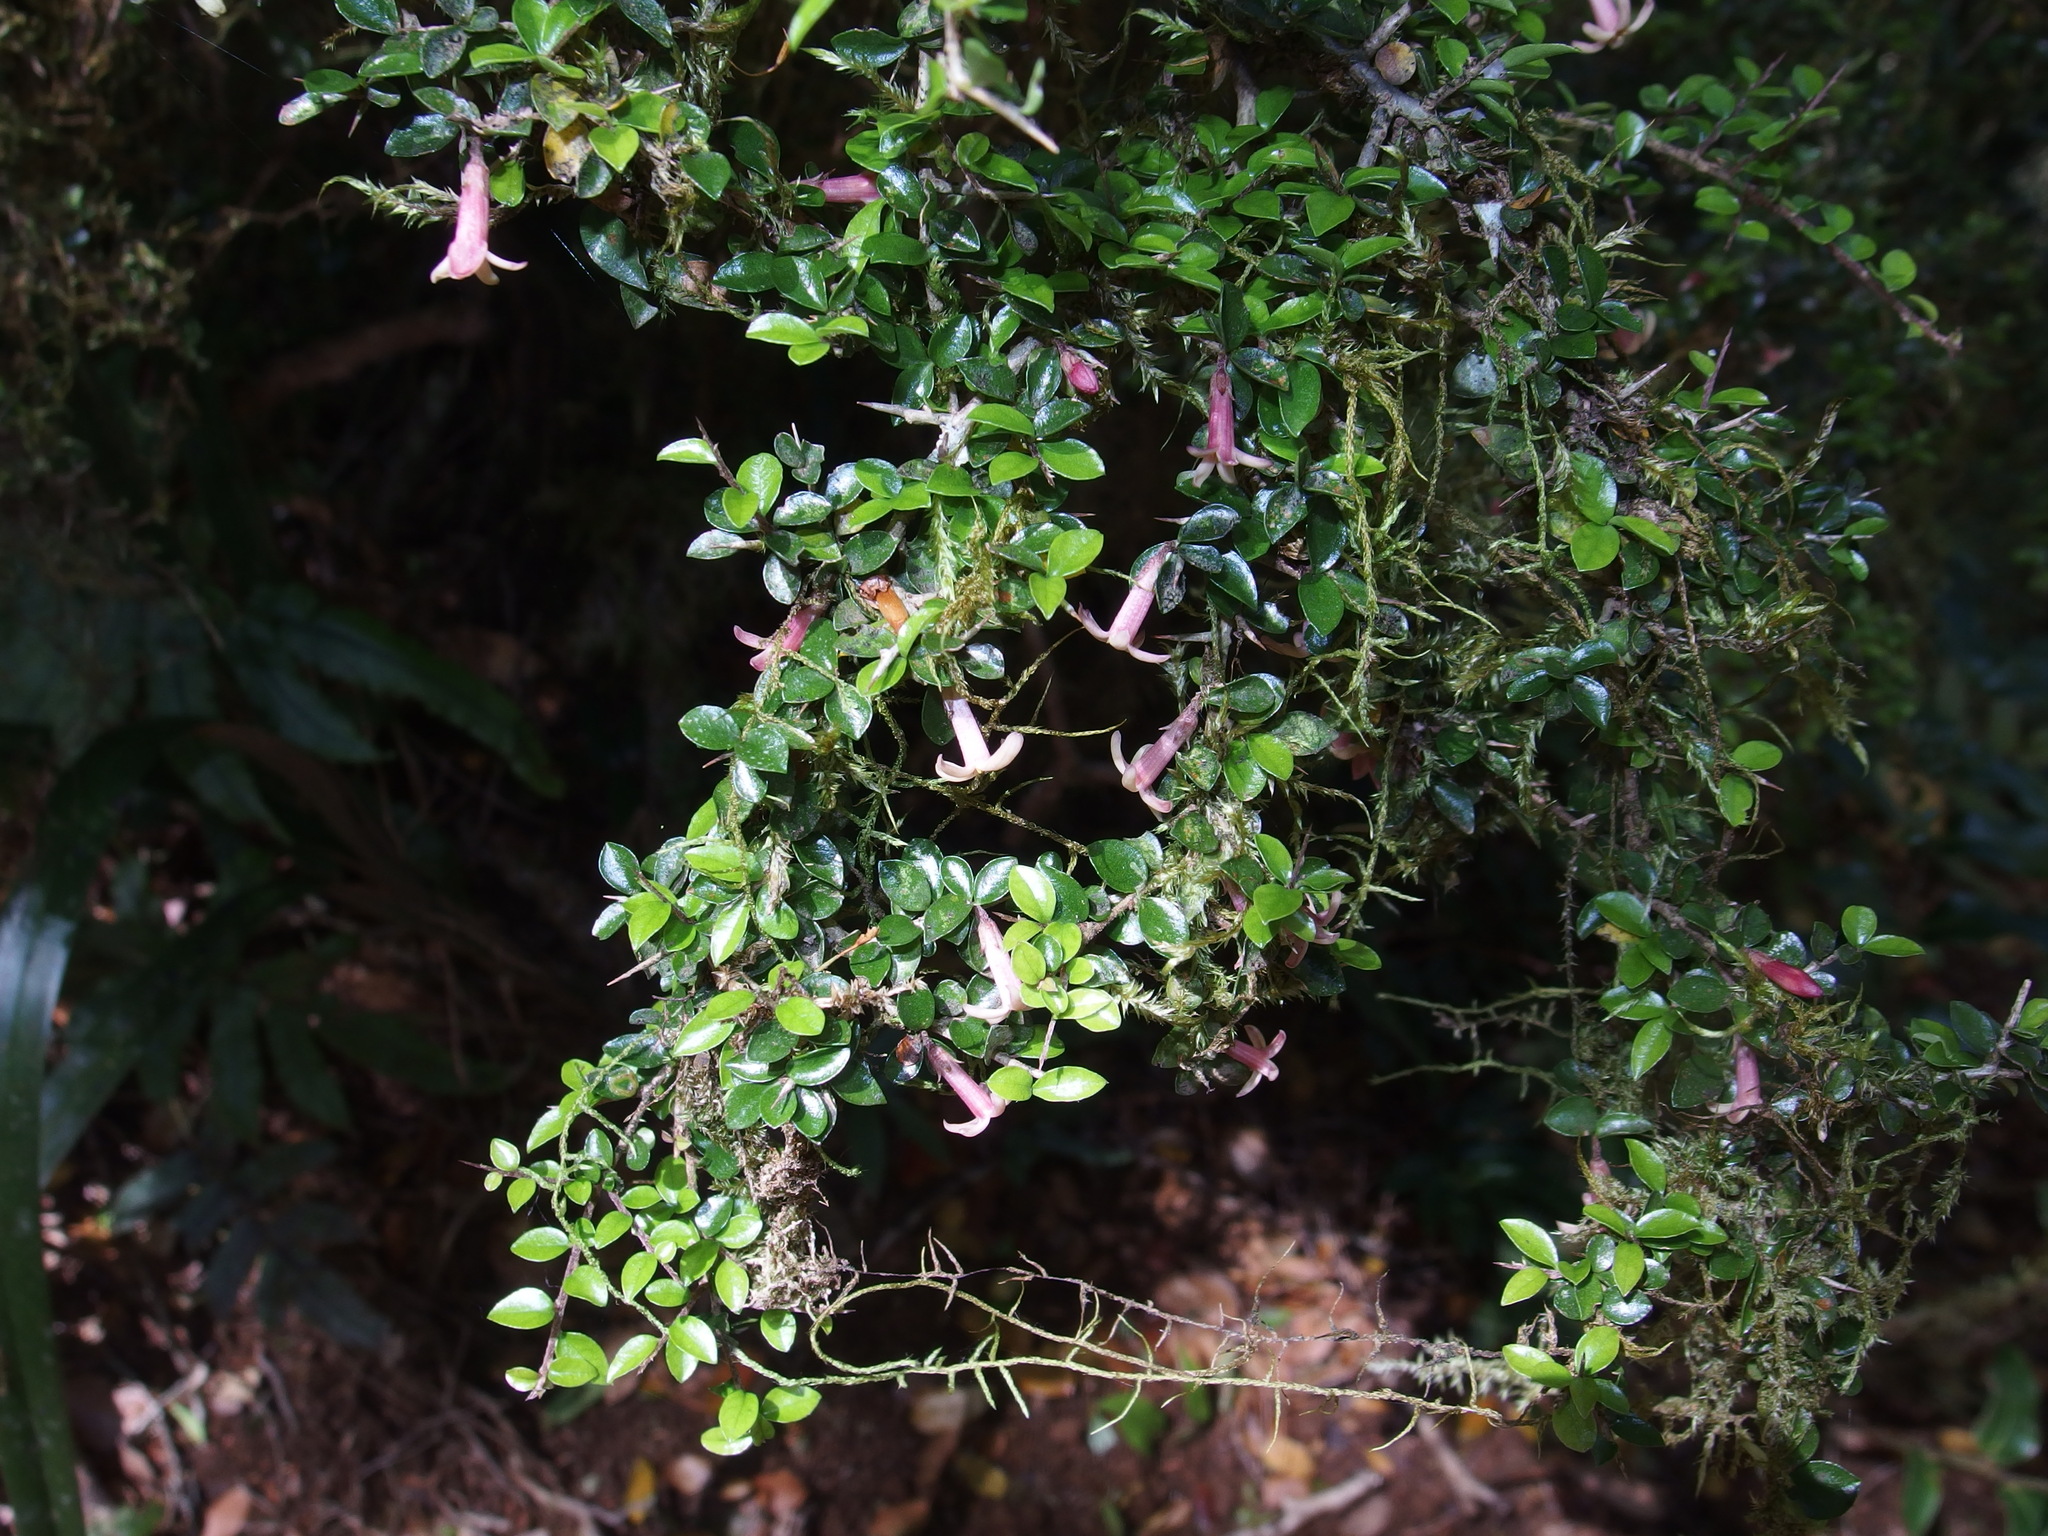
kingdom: Plantae
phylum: Tracheophyta
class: Magnoliopsida
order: Apiales
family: Pittosporaceae
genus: Pittosporum
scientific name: Pittosporum oreillyanum
